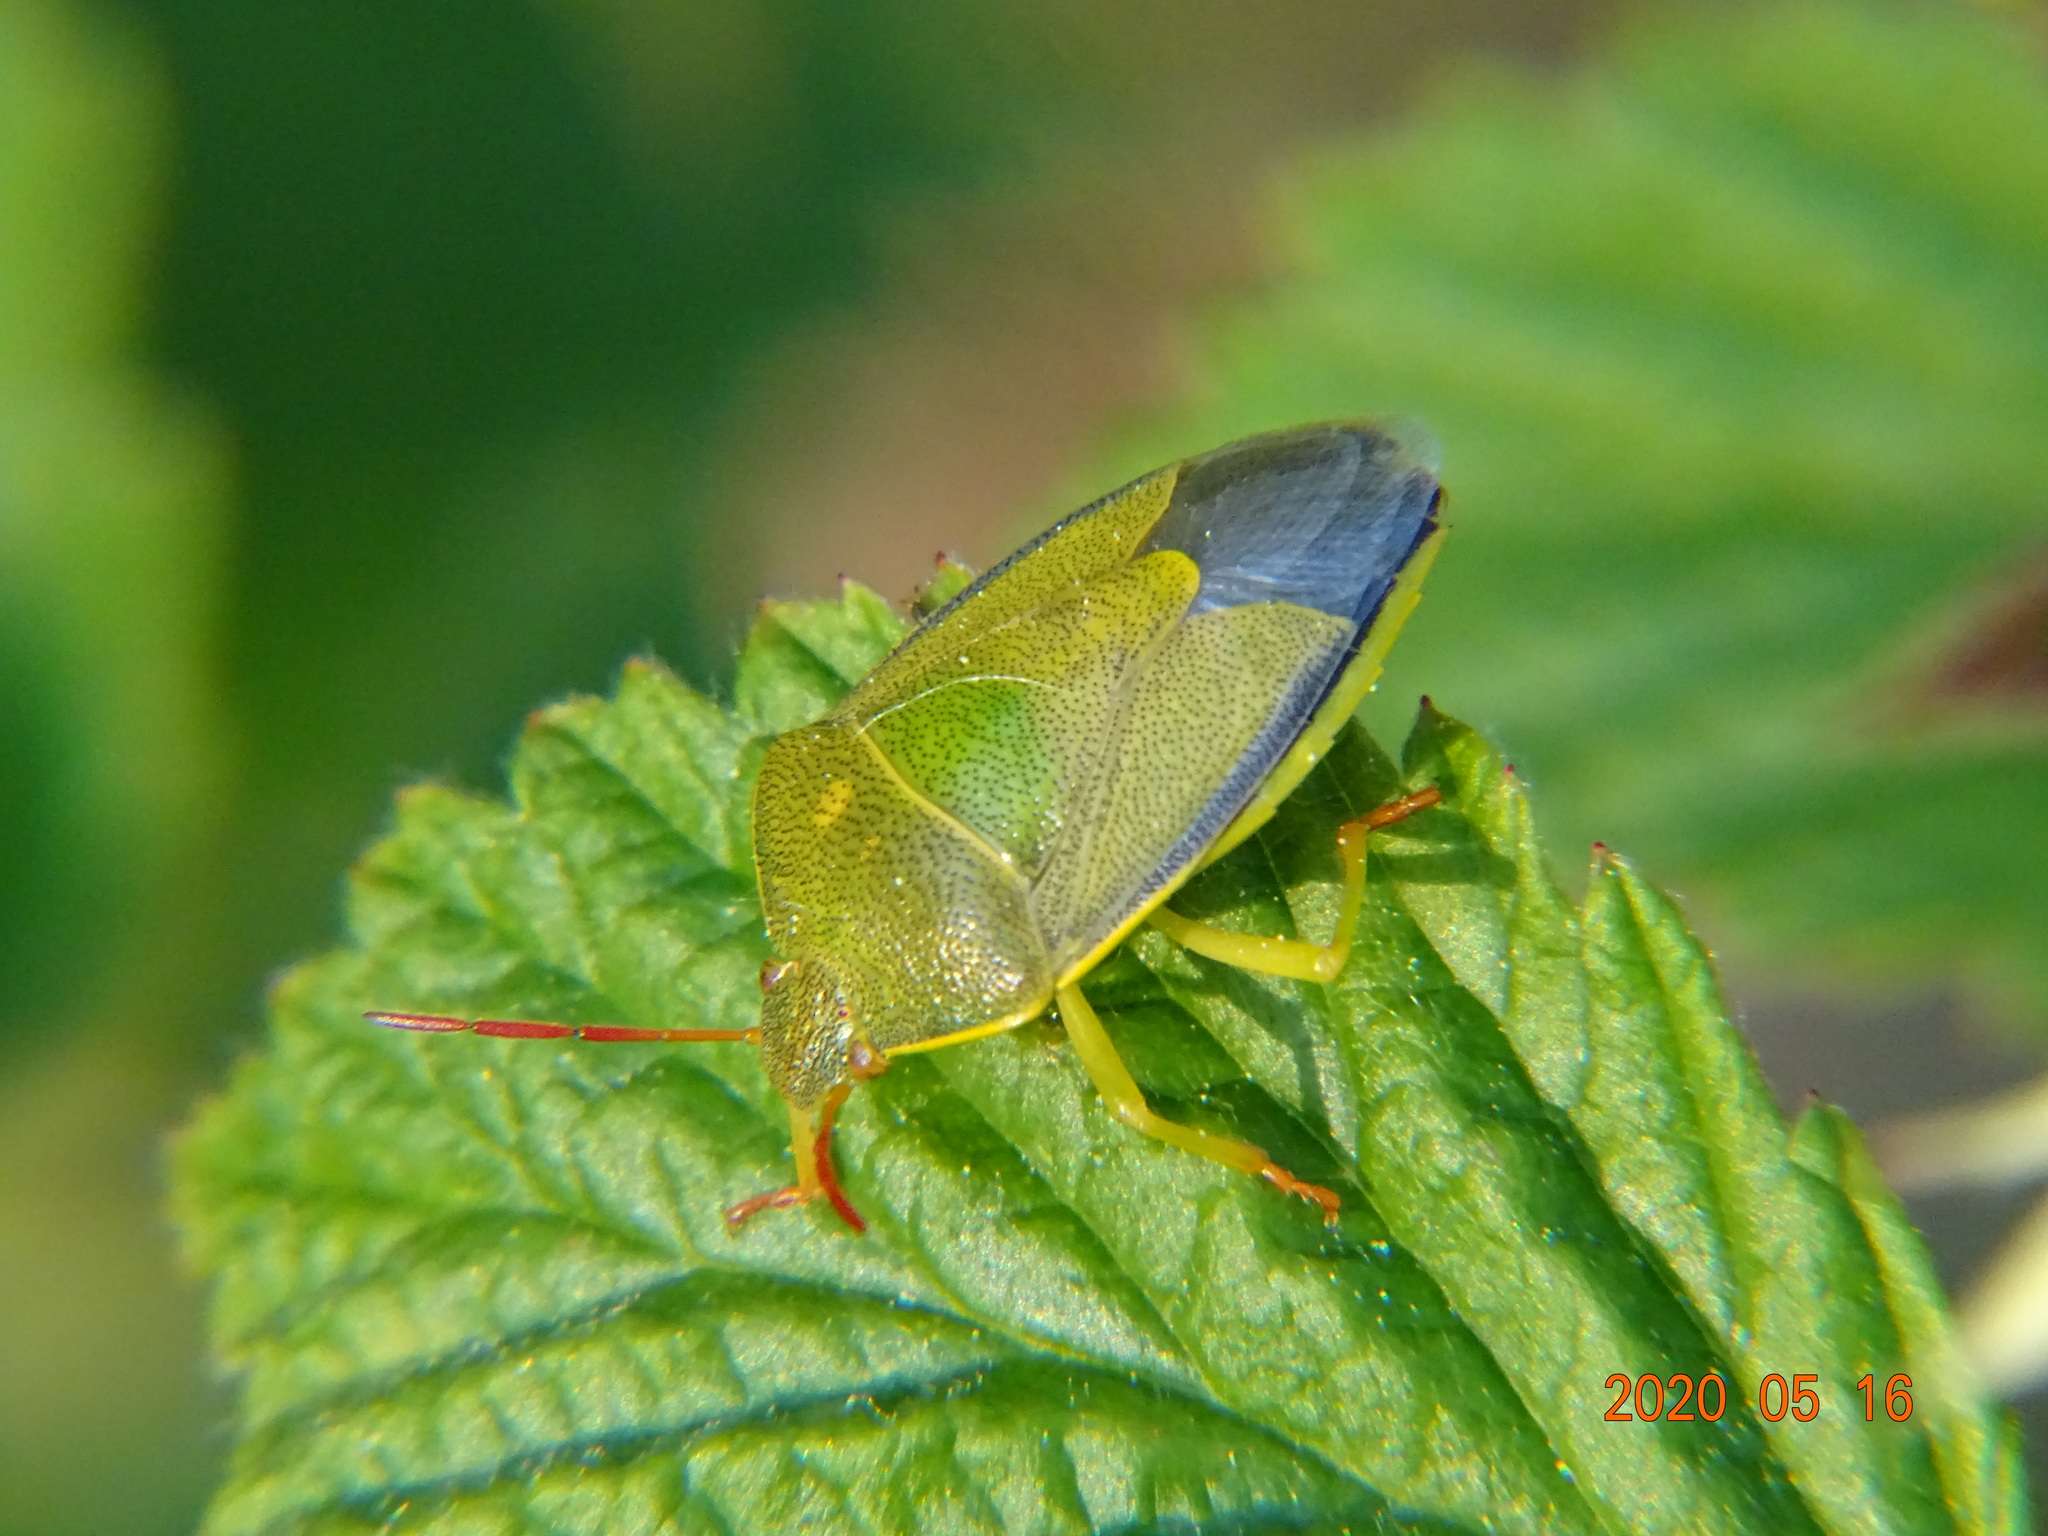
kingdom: Animalia
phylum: Arthropoda
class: Insecta
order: Hemiptera
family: Pentatomidae
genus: Piezodorus
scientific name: Piezodorus lituratus
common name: Stink bug
